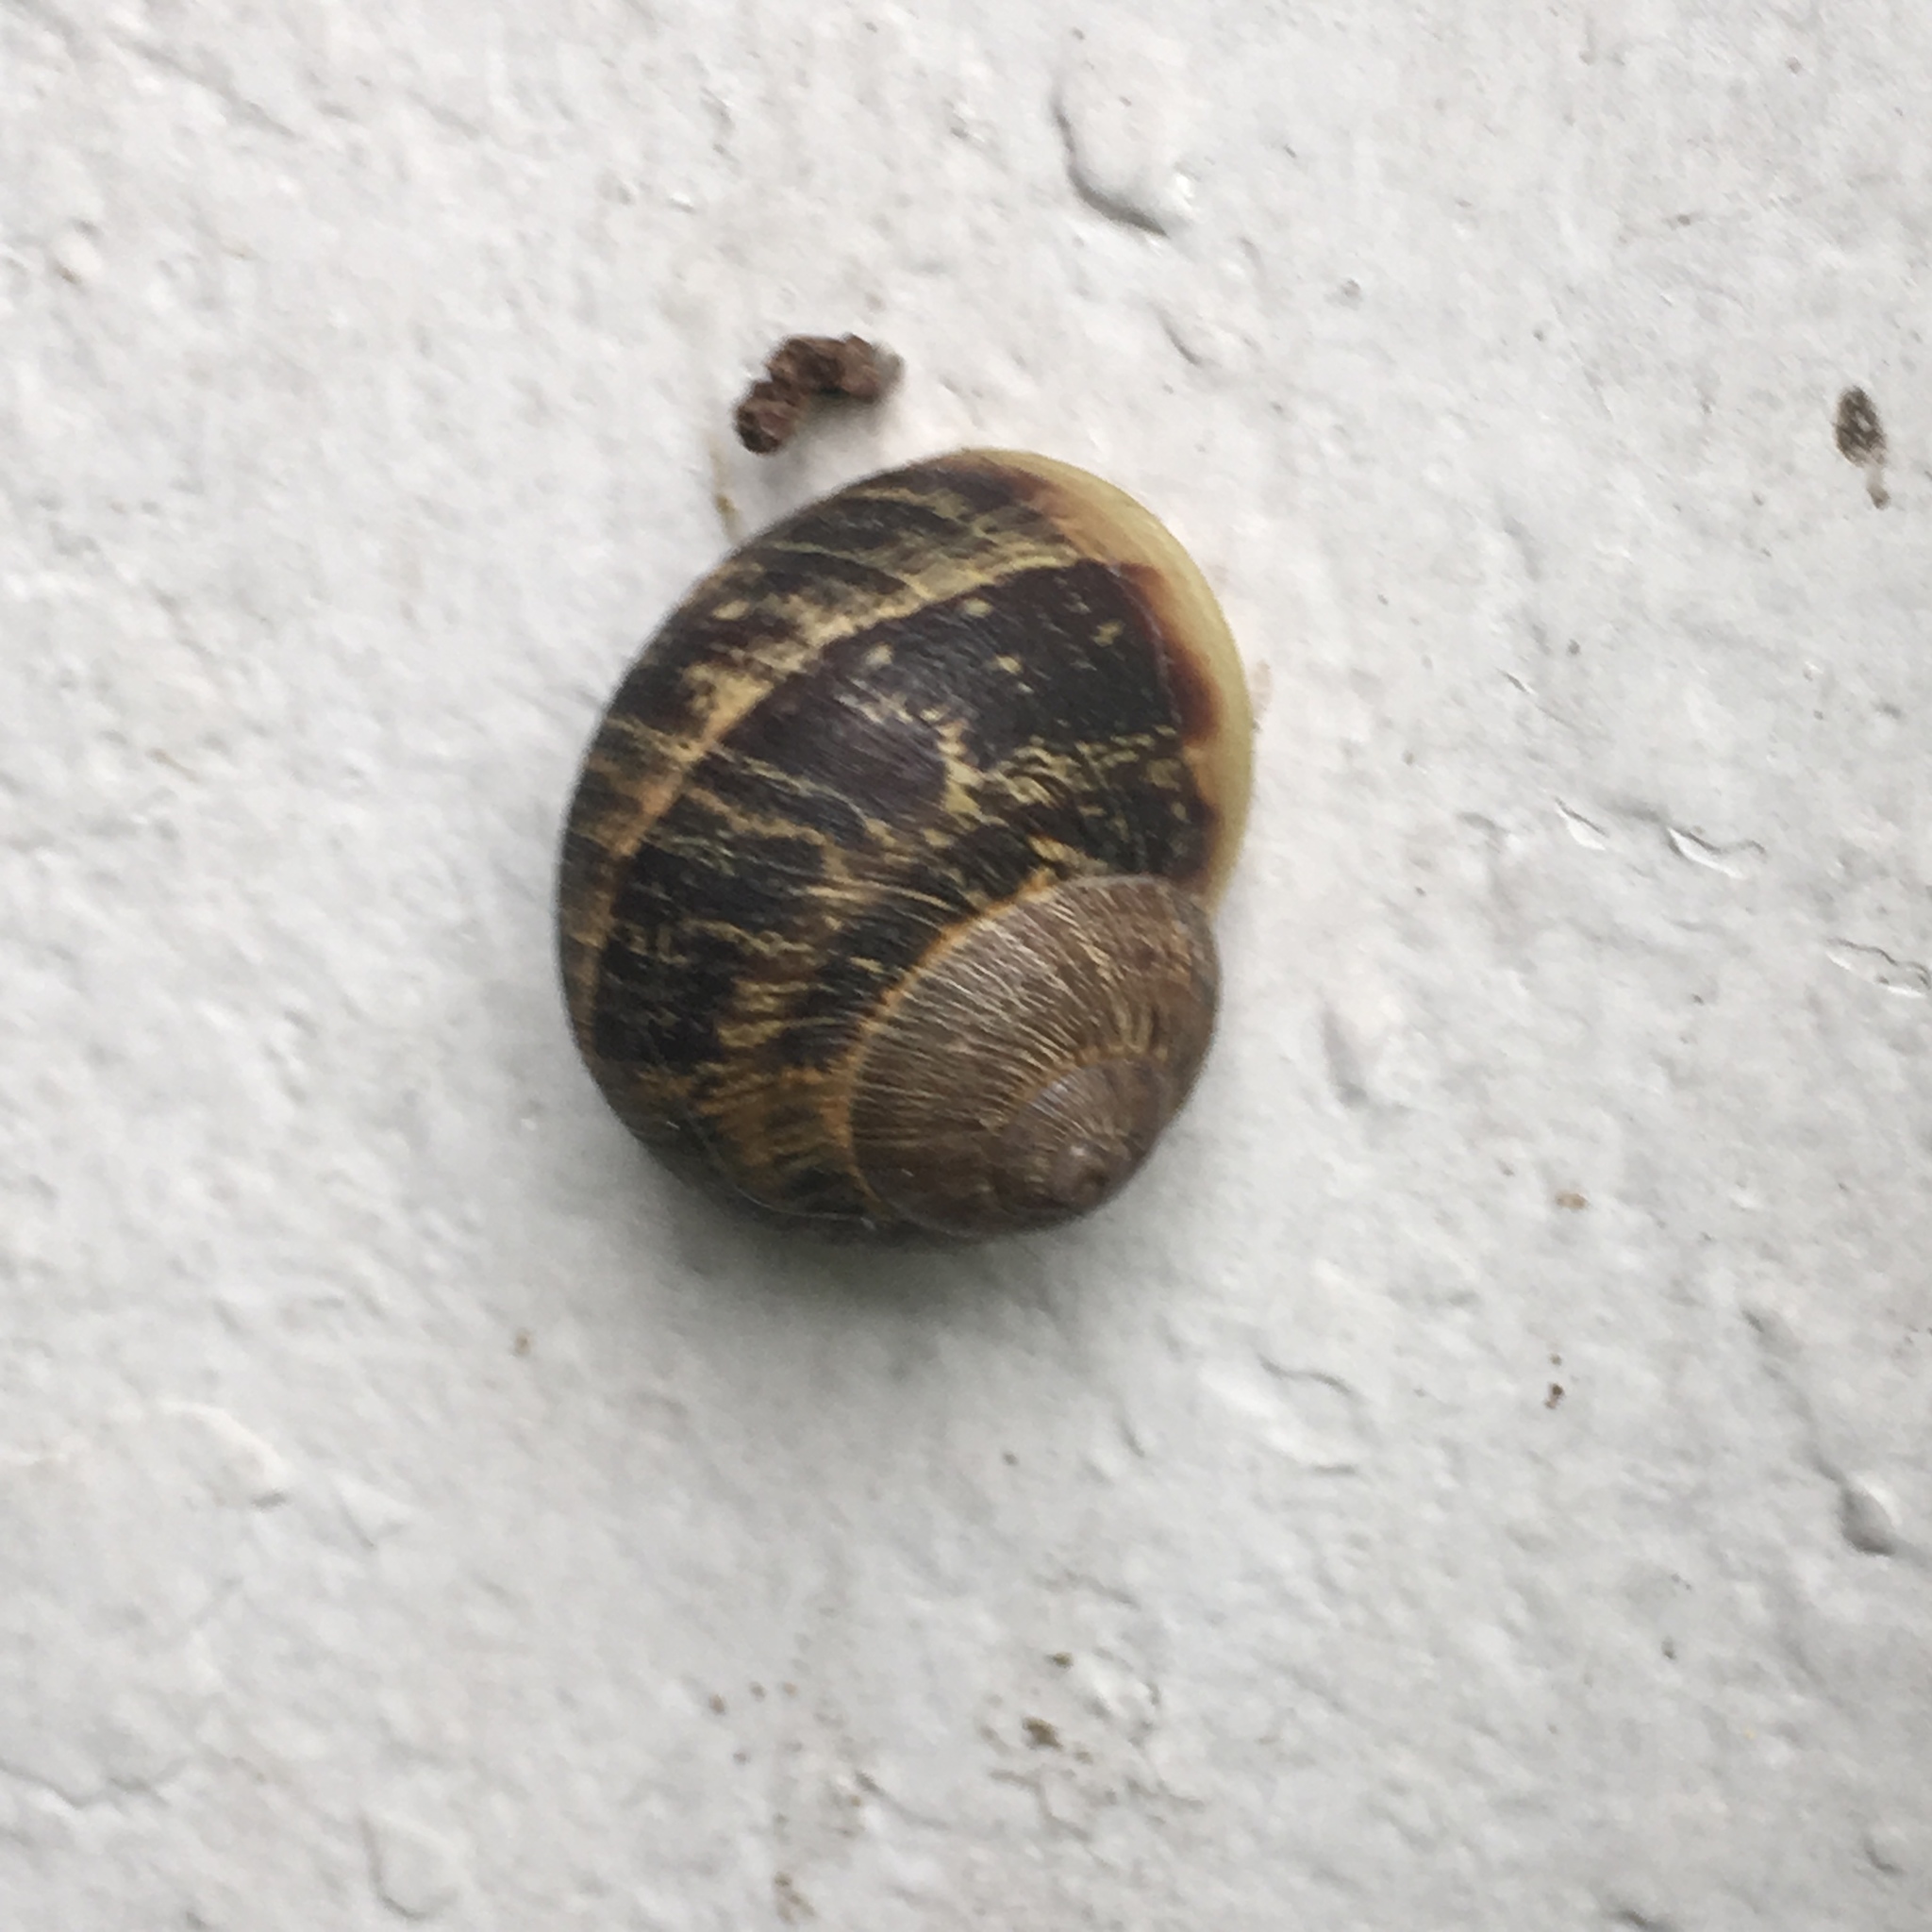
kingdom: Animalia
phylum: Mollusca
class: Gastropoda
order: Stylommatophora
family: Helicidae
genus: Cornu
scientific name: Cornu aspersum
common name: Brown garden snail
